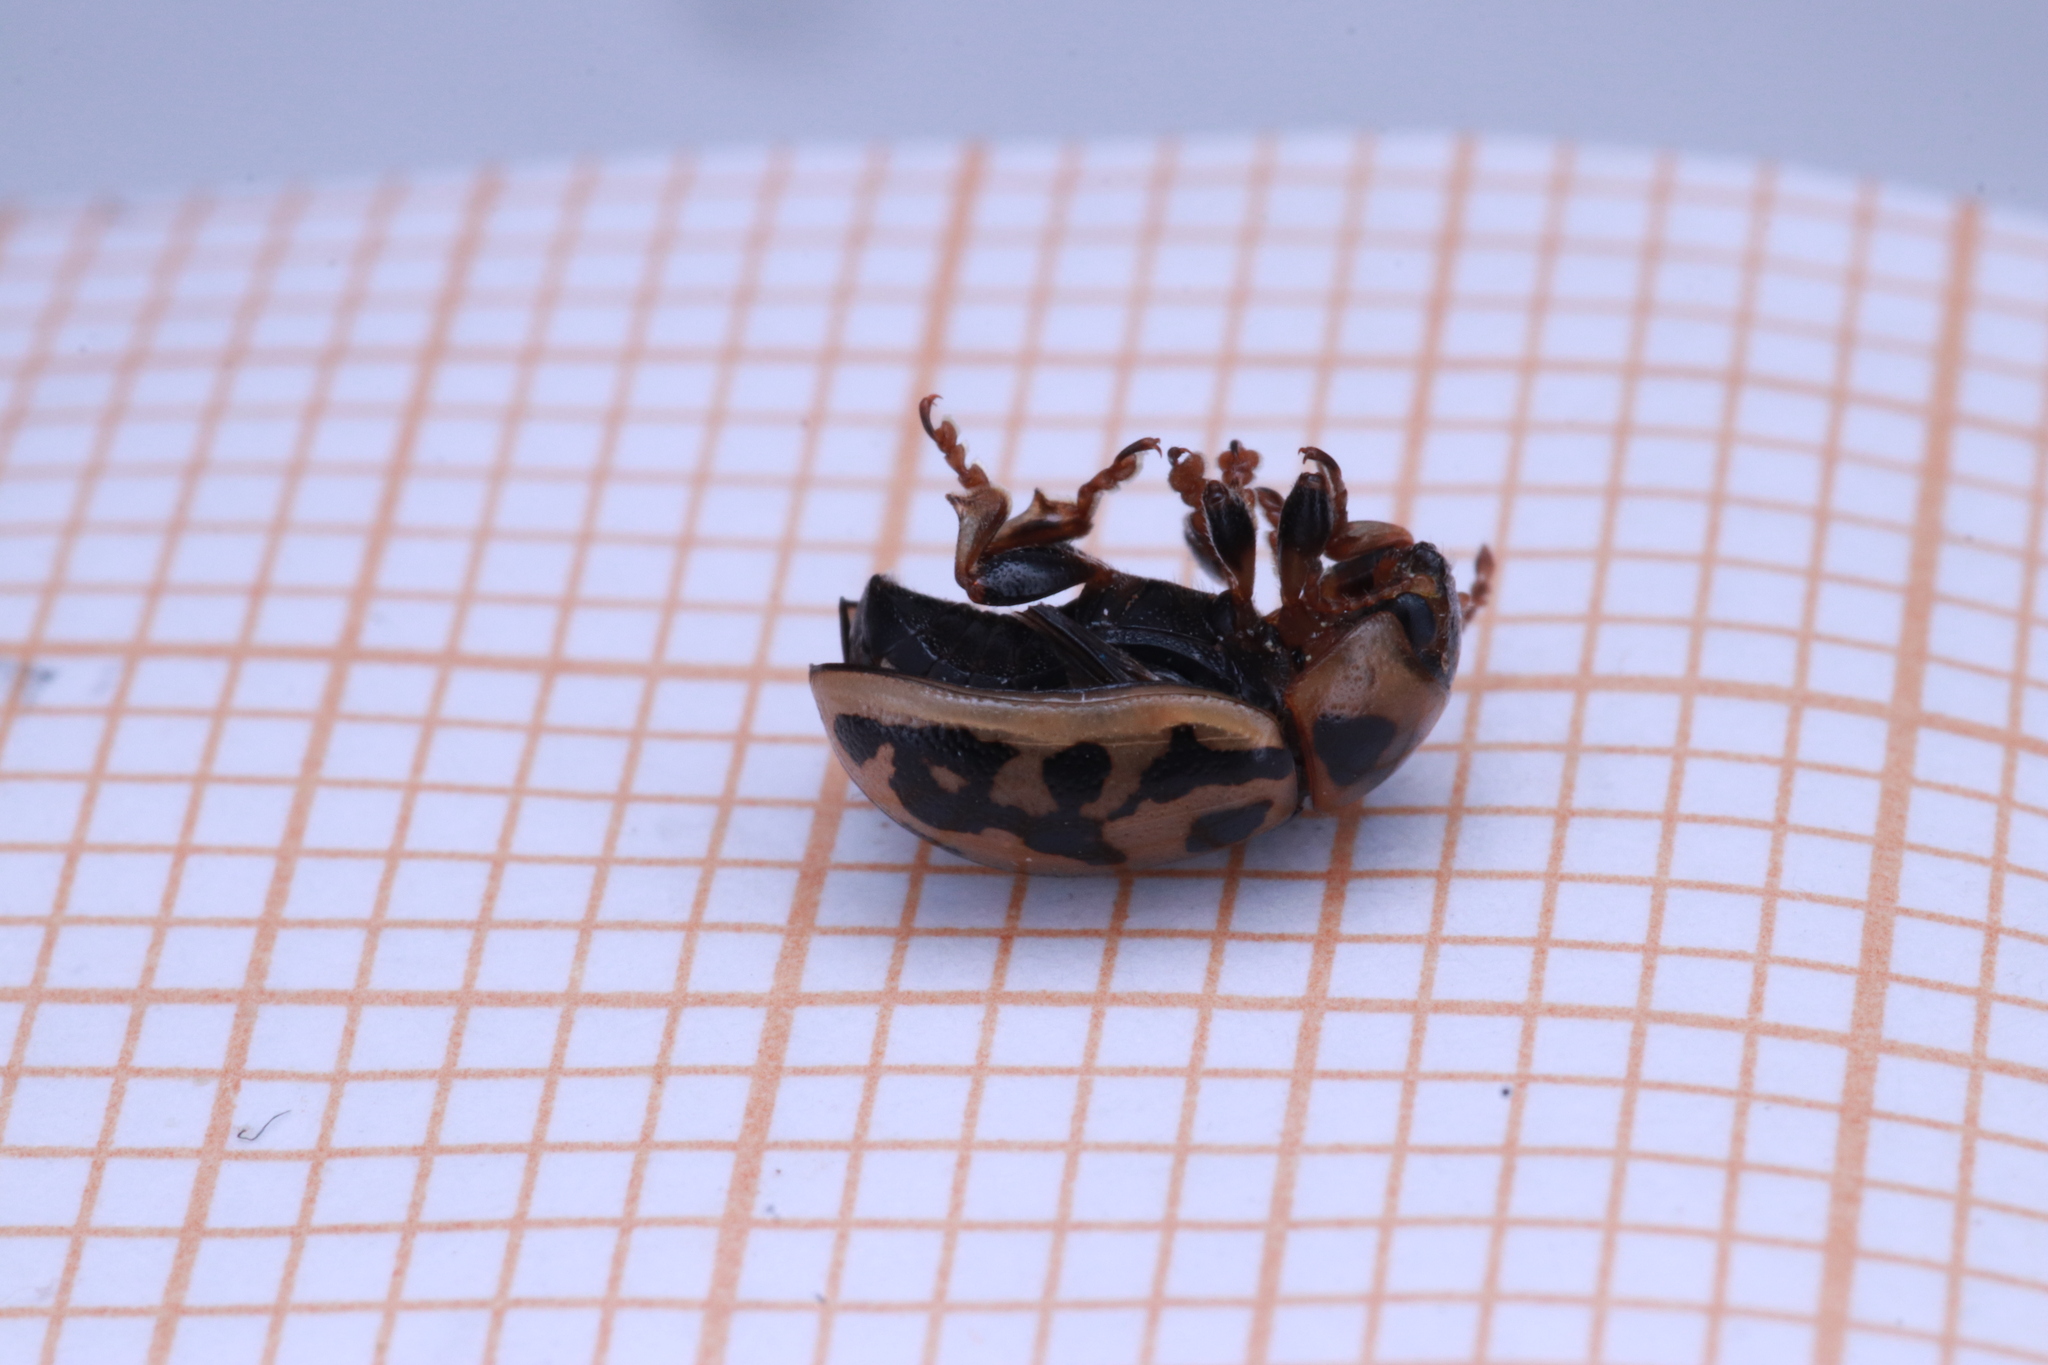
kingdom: Animalia
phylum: Arthropoda
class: Insecta
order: Coleoptera
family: Chrysomelidae
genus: Gonioctena
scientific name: Gonioctena variabilis
